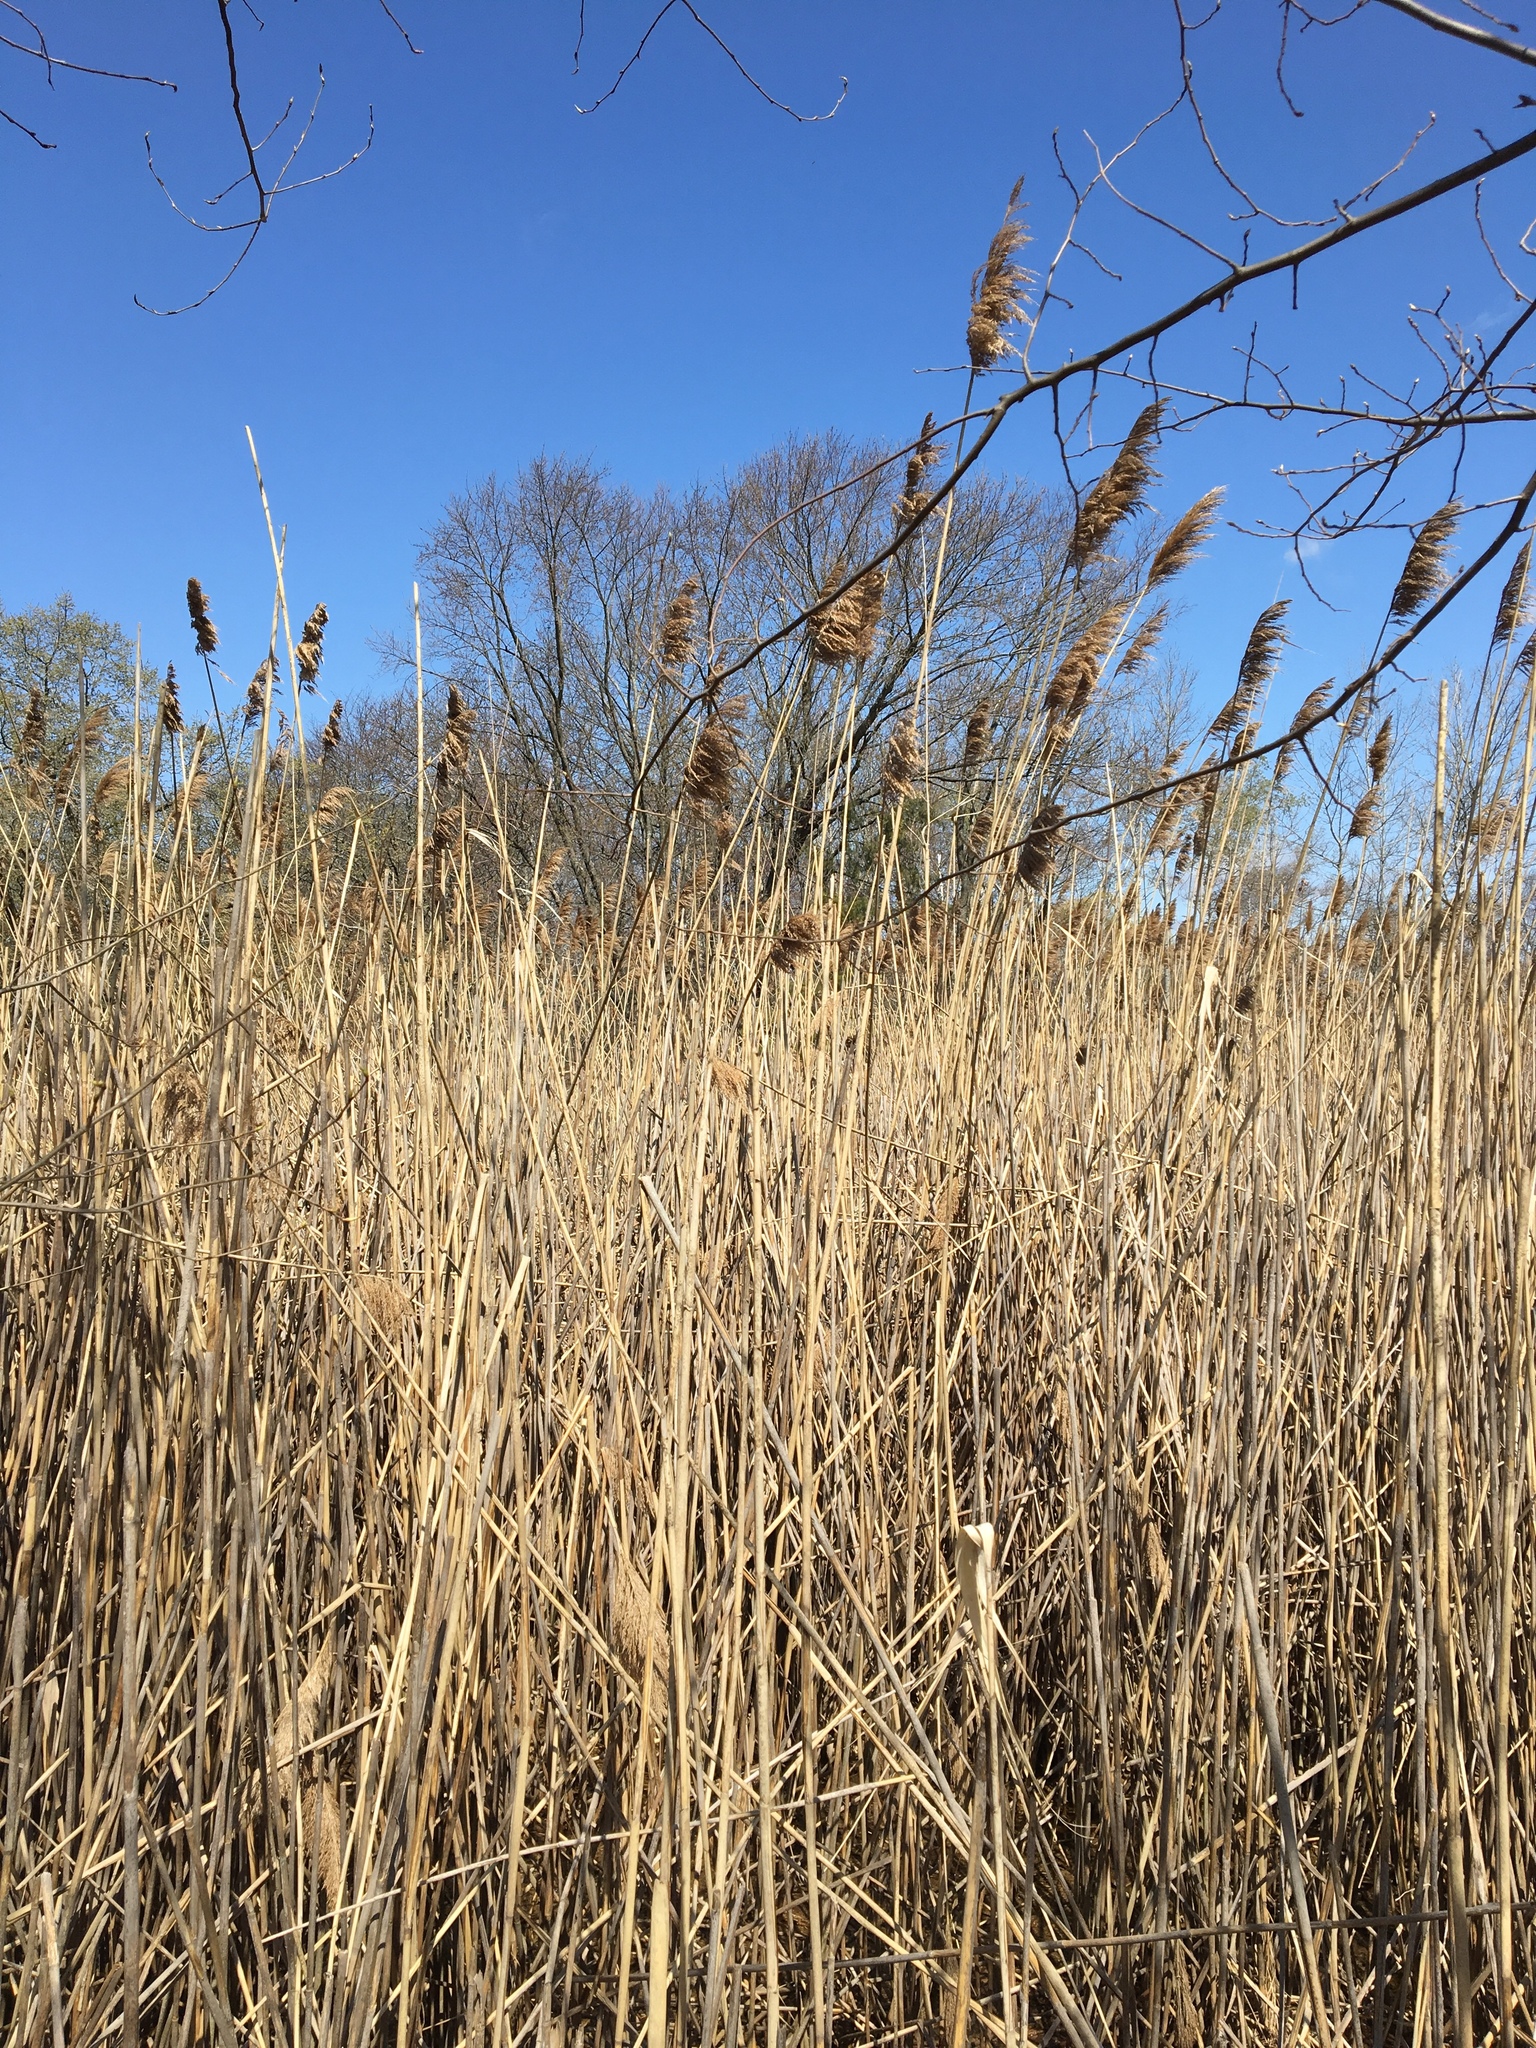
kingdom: Plantae
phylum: Tracheophyta
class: Liliopsida
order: Poales
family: Poaceae
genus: Phragmites
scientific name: Phragmites australis
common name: Common reed
